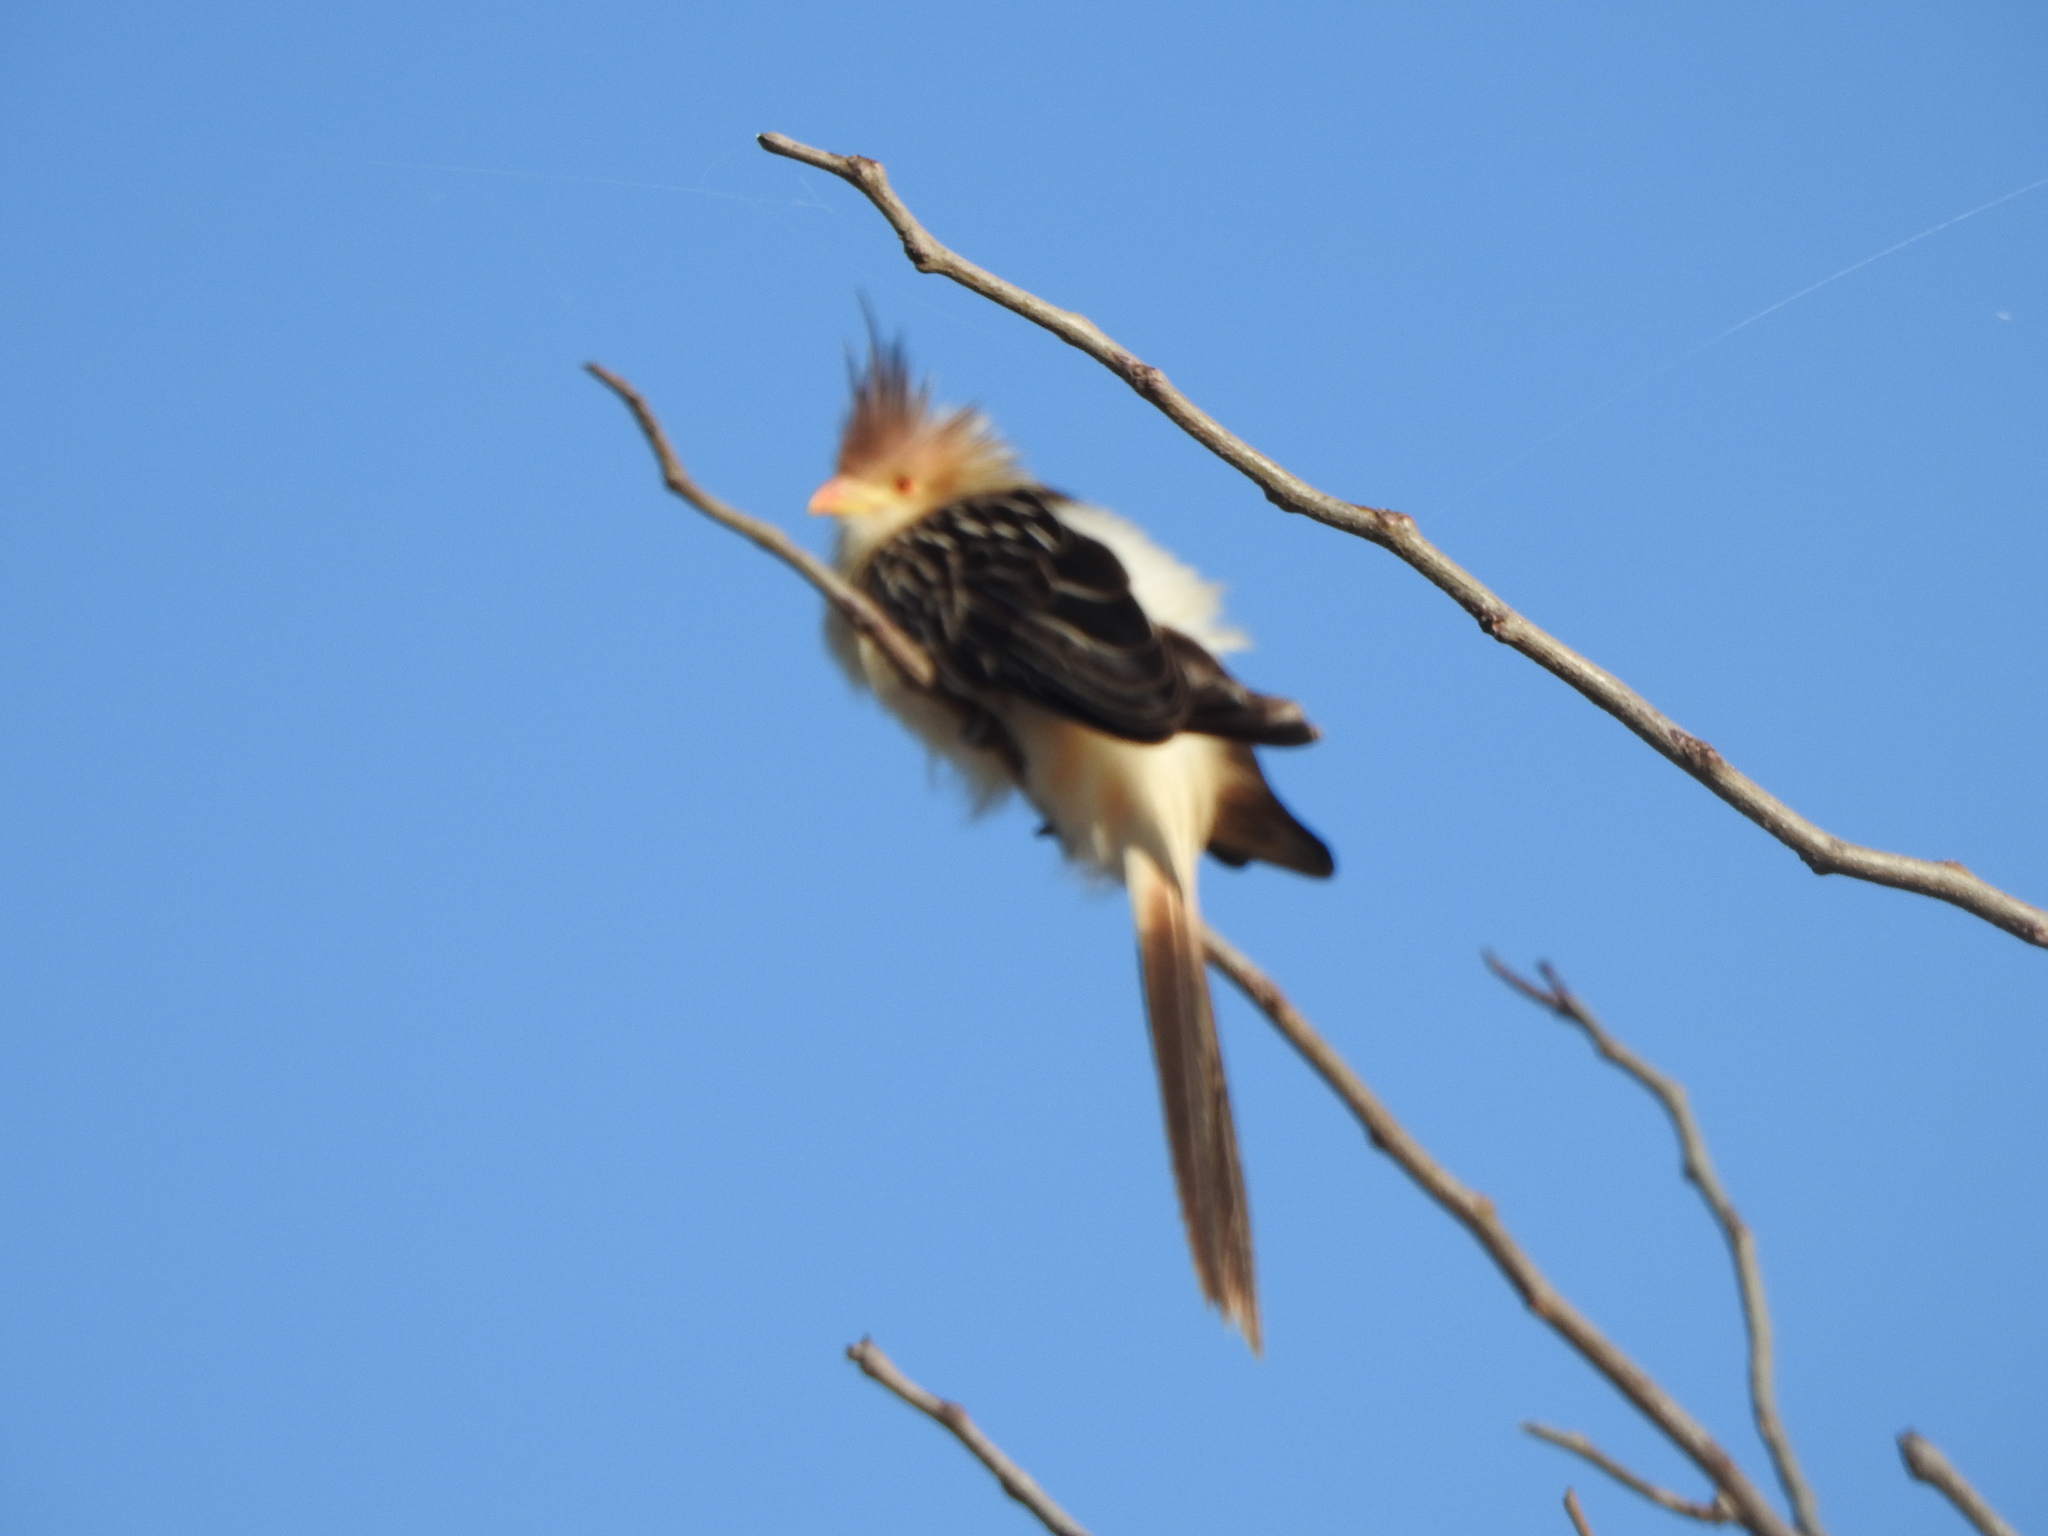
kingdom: Animalia
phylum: Chordata
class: Aves
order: Cuculiformes
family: Cuculidae
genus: Guira
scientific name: Guira guira
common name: Guira cuckoo
